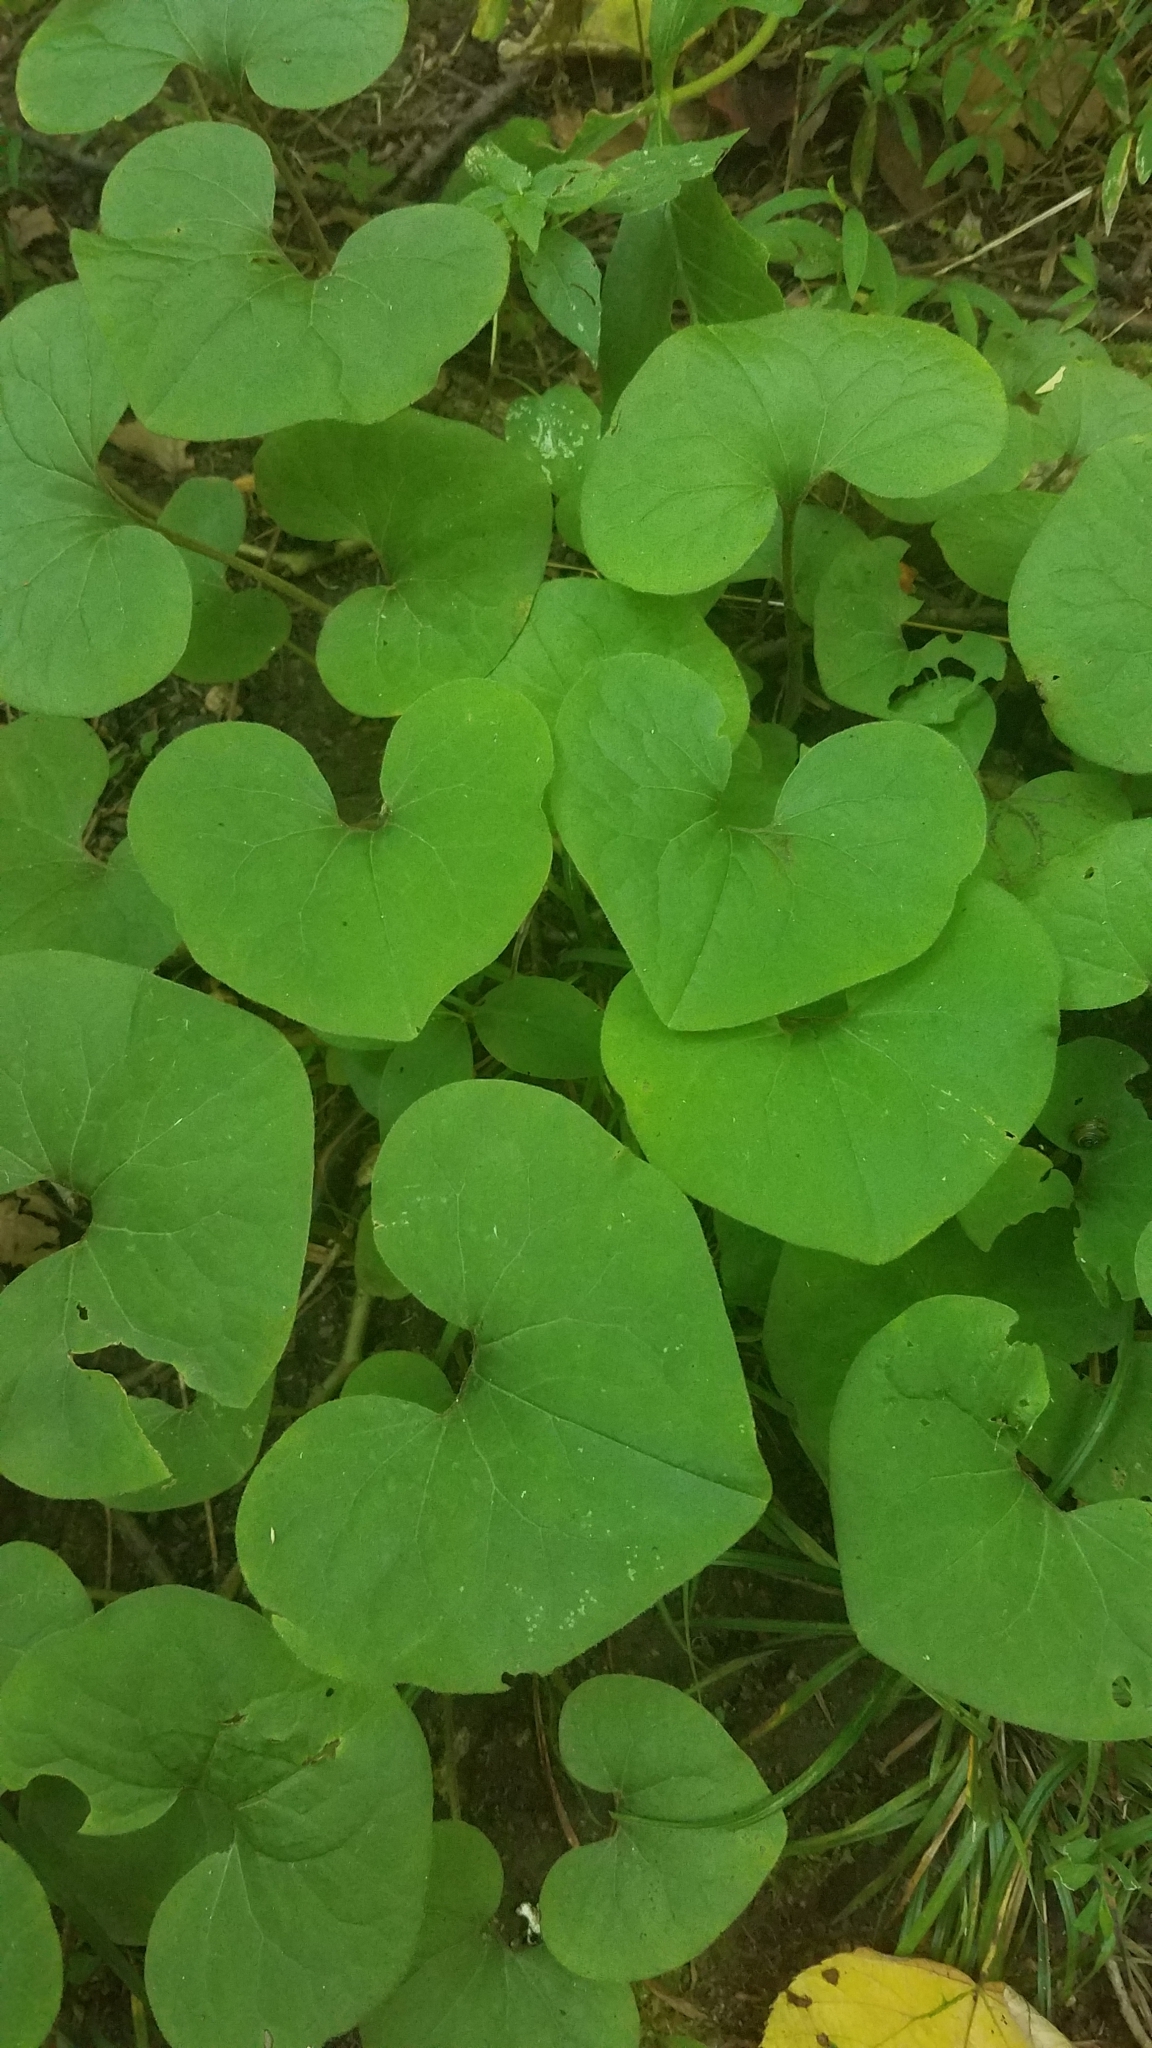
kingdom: Plantae
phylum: Tracheophyta
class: Magnoliopsida
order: Piperales
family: Aristolochiaceae
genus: Asarum
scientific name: Asarum canadense
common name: Wild ginger
